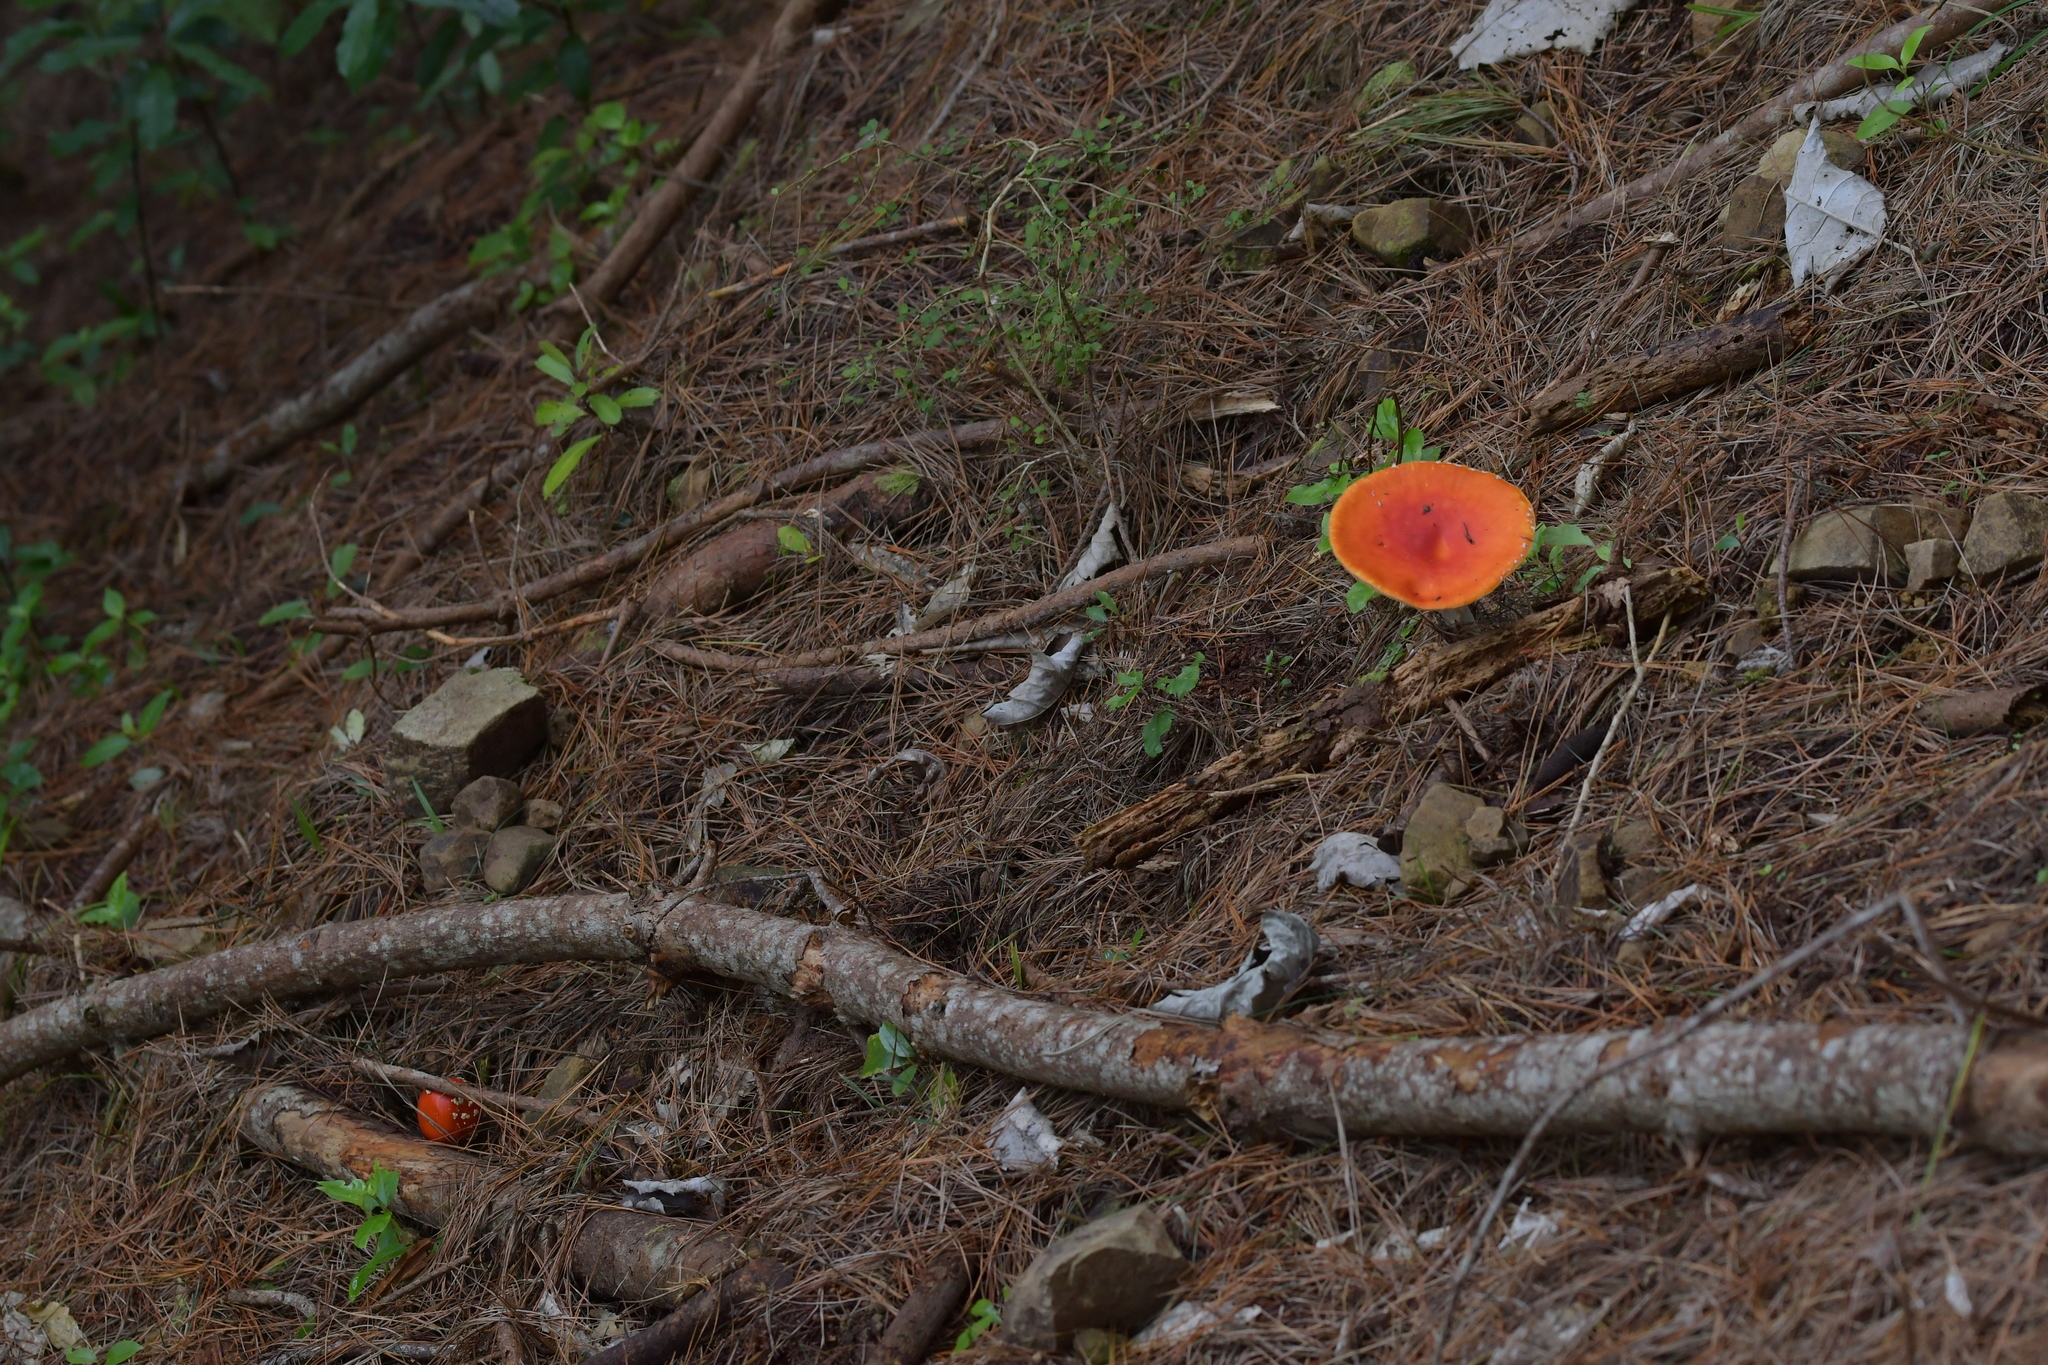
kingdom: Fungi
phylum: Basidiomycota
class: Agaricomycetes
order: Agaricales
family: Amanitaceae
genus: Amanita
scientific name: Amanita muscaria
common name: Fly agaric
